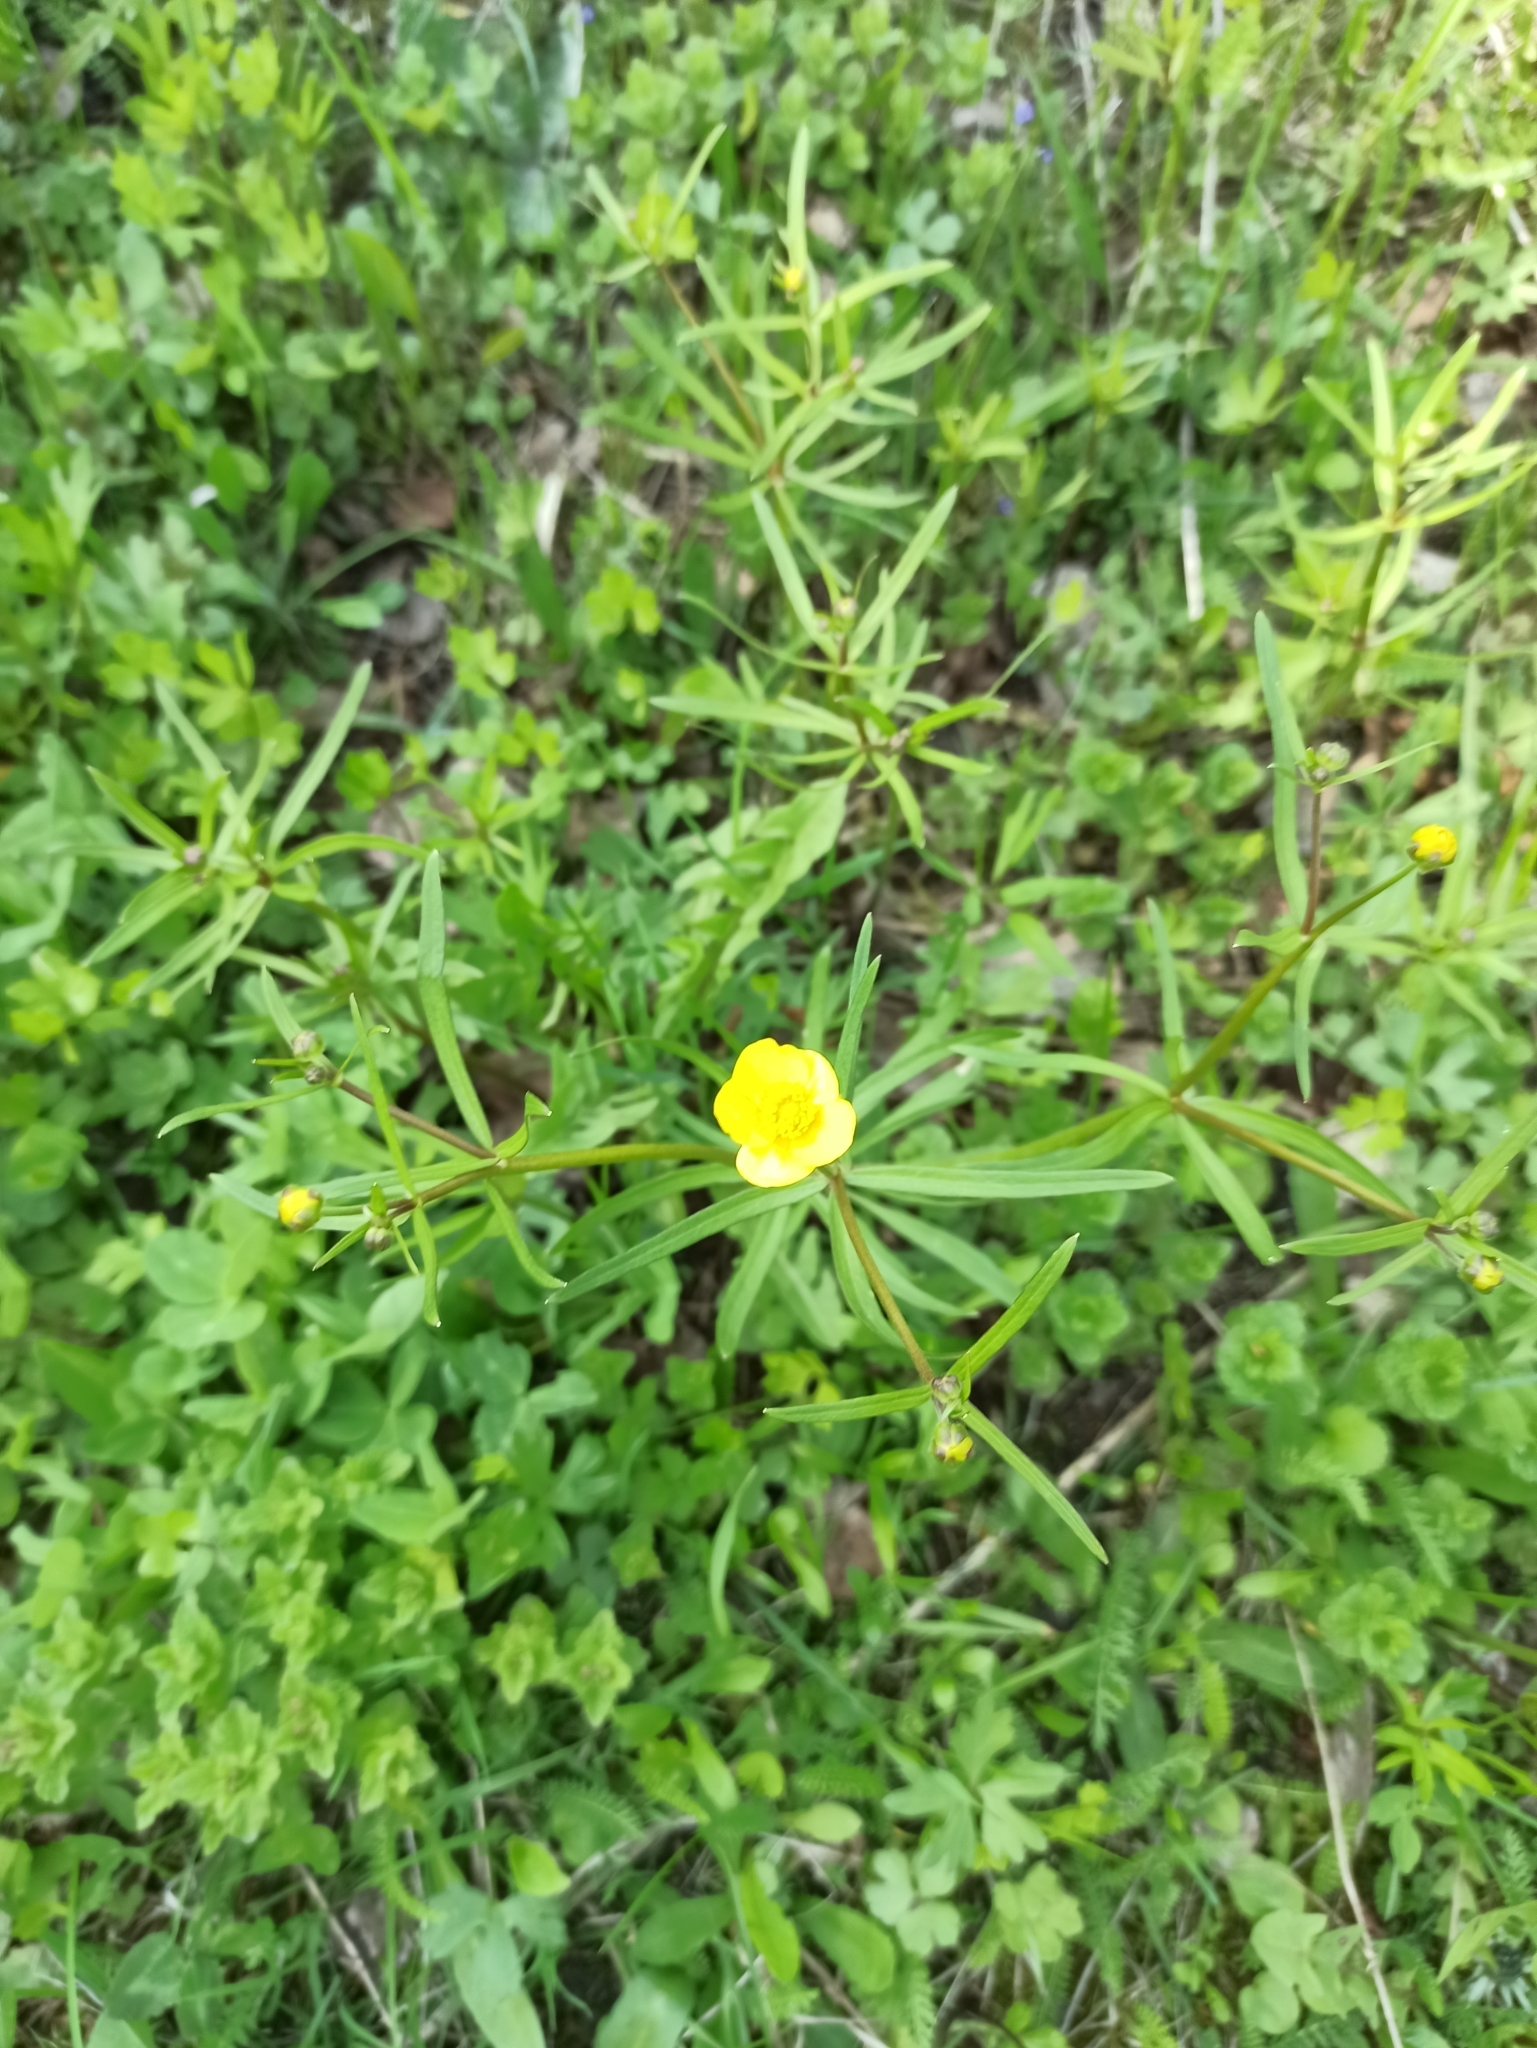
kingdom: Plantae
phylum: Tracheophyta
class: Magnoliopsida
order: Ranunculales
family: Ranunculaceae
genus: Ranunculus
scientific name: Ranunculus auricomus
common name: Goldilocks buttercup
